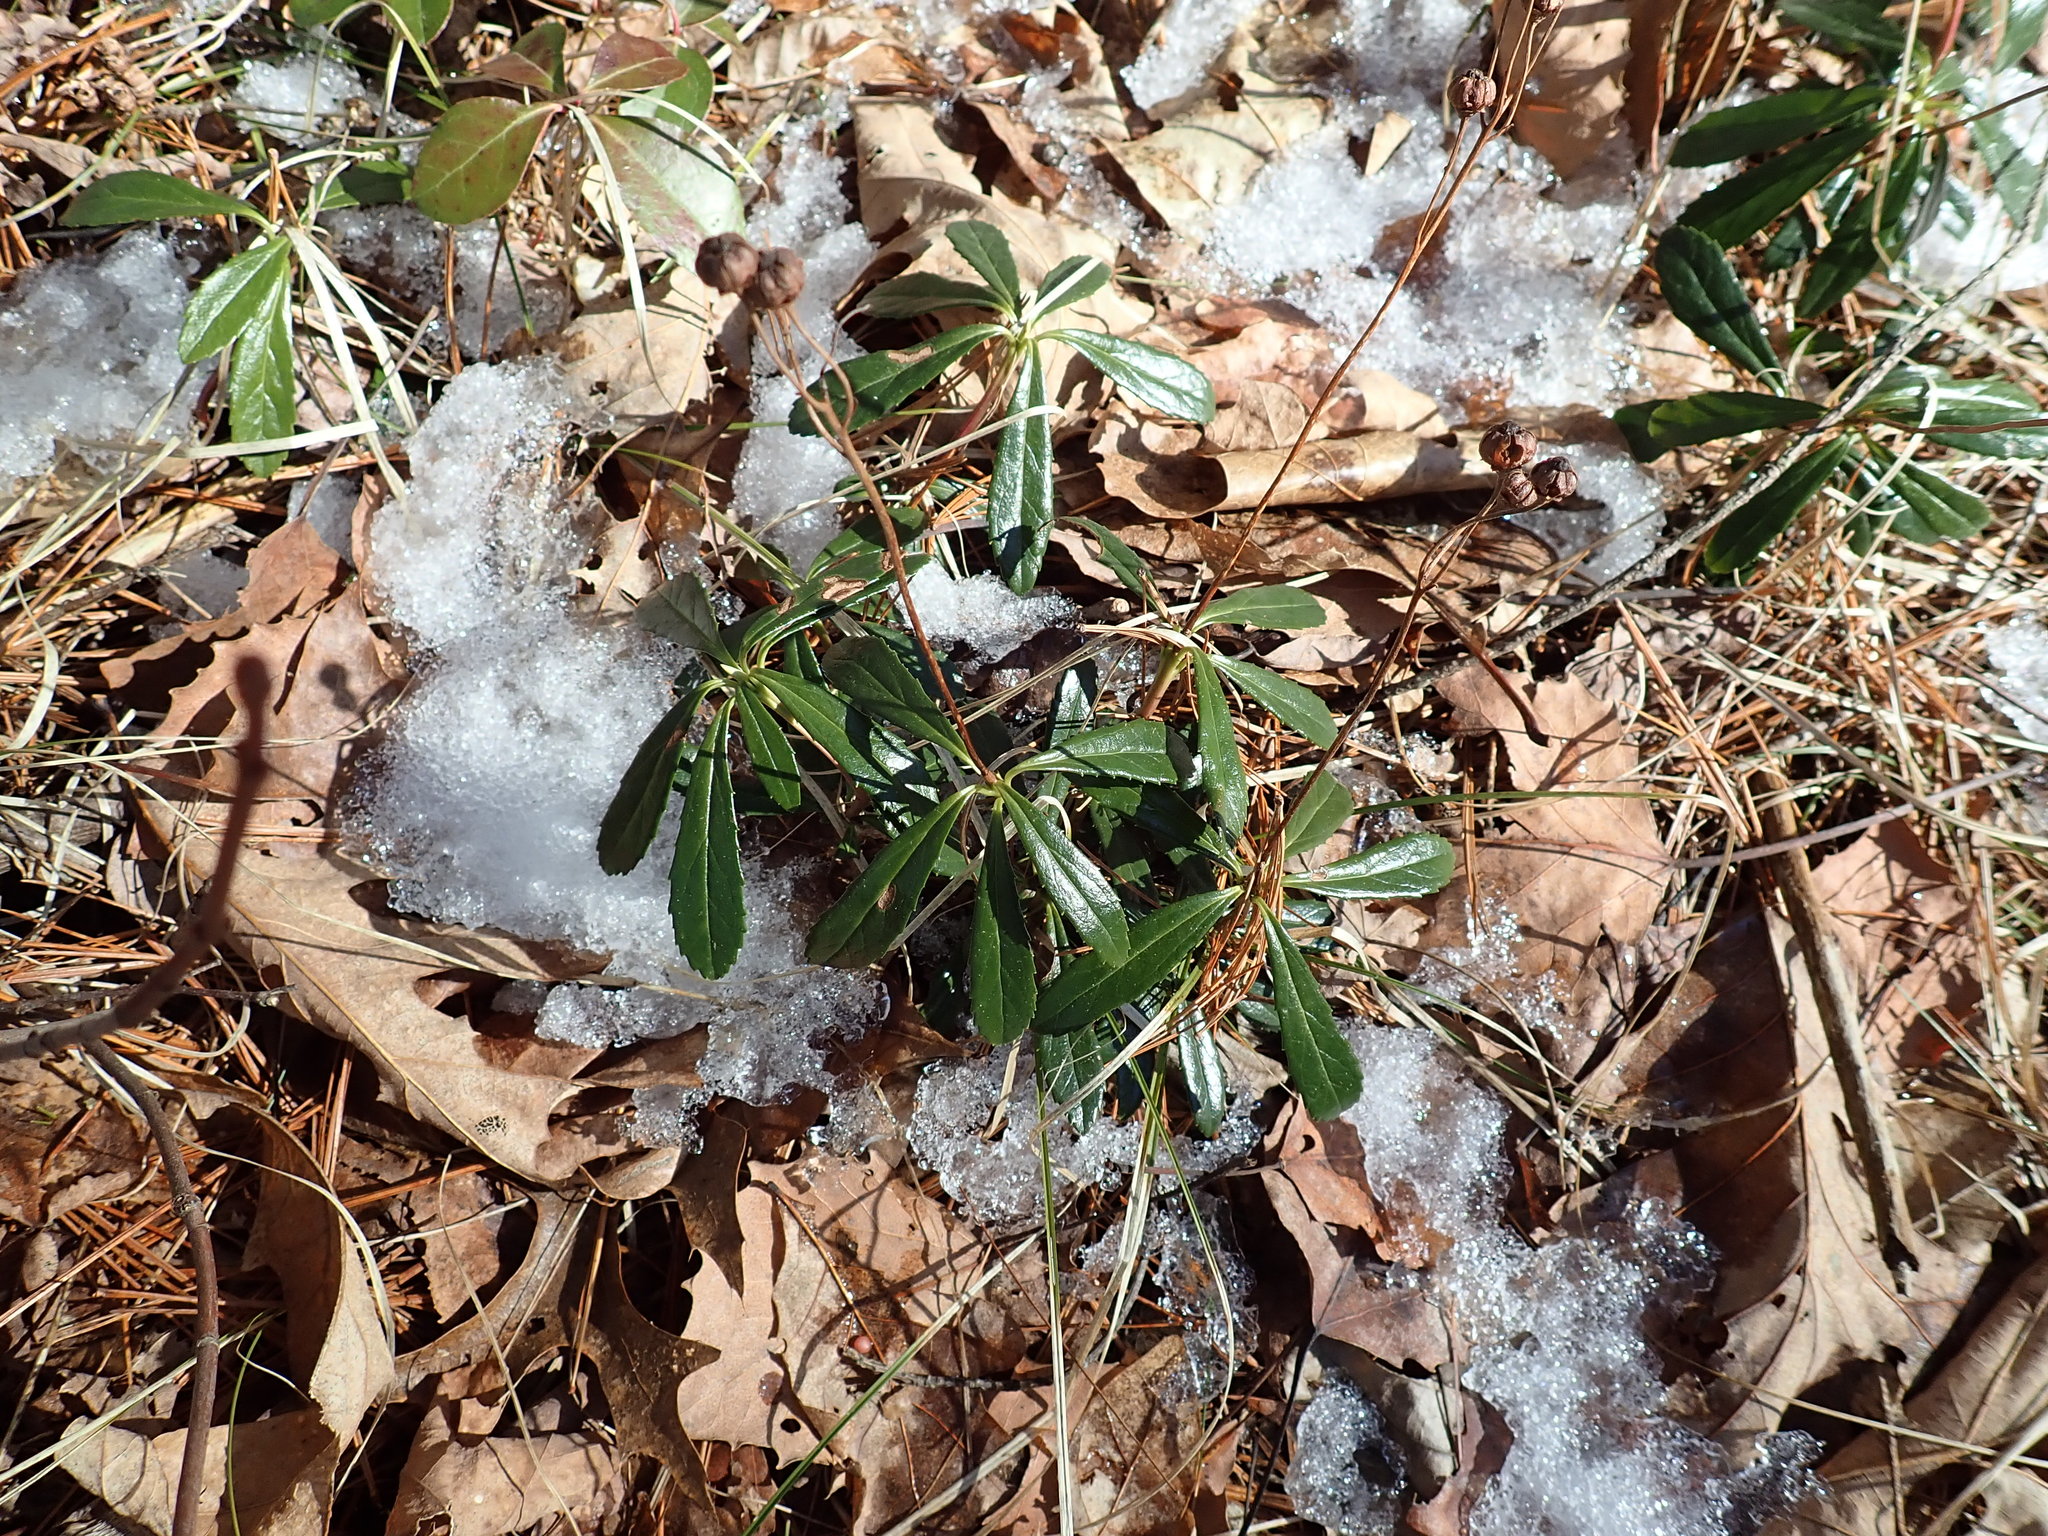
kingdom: Plantae
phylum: Tracheophyta
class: Magnoliopsida
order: Ericales
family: Ericaceae
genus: Chimaphila
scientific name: Chimaphila umbellata
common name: Pipsissewa
